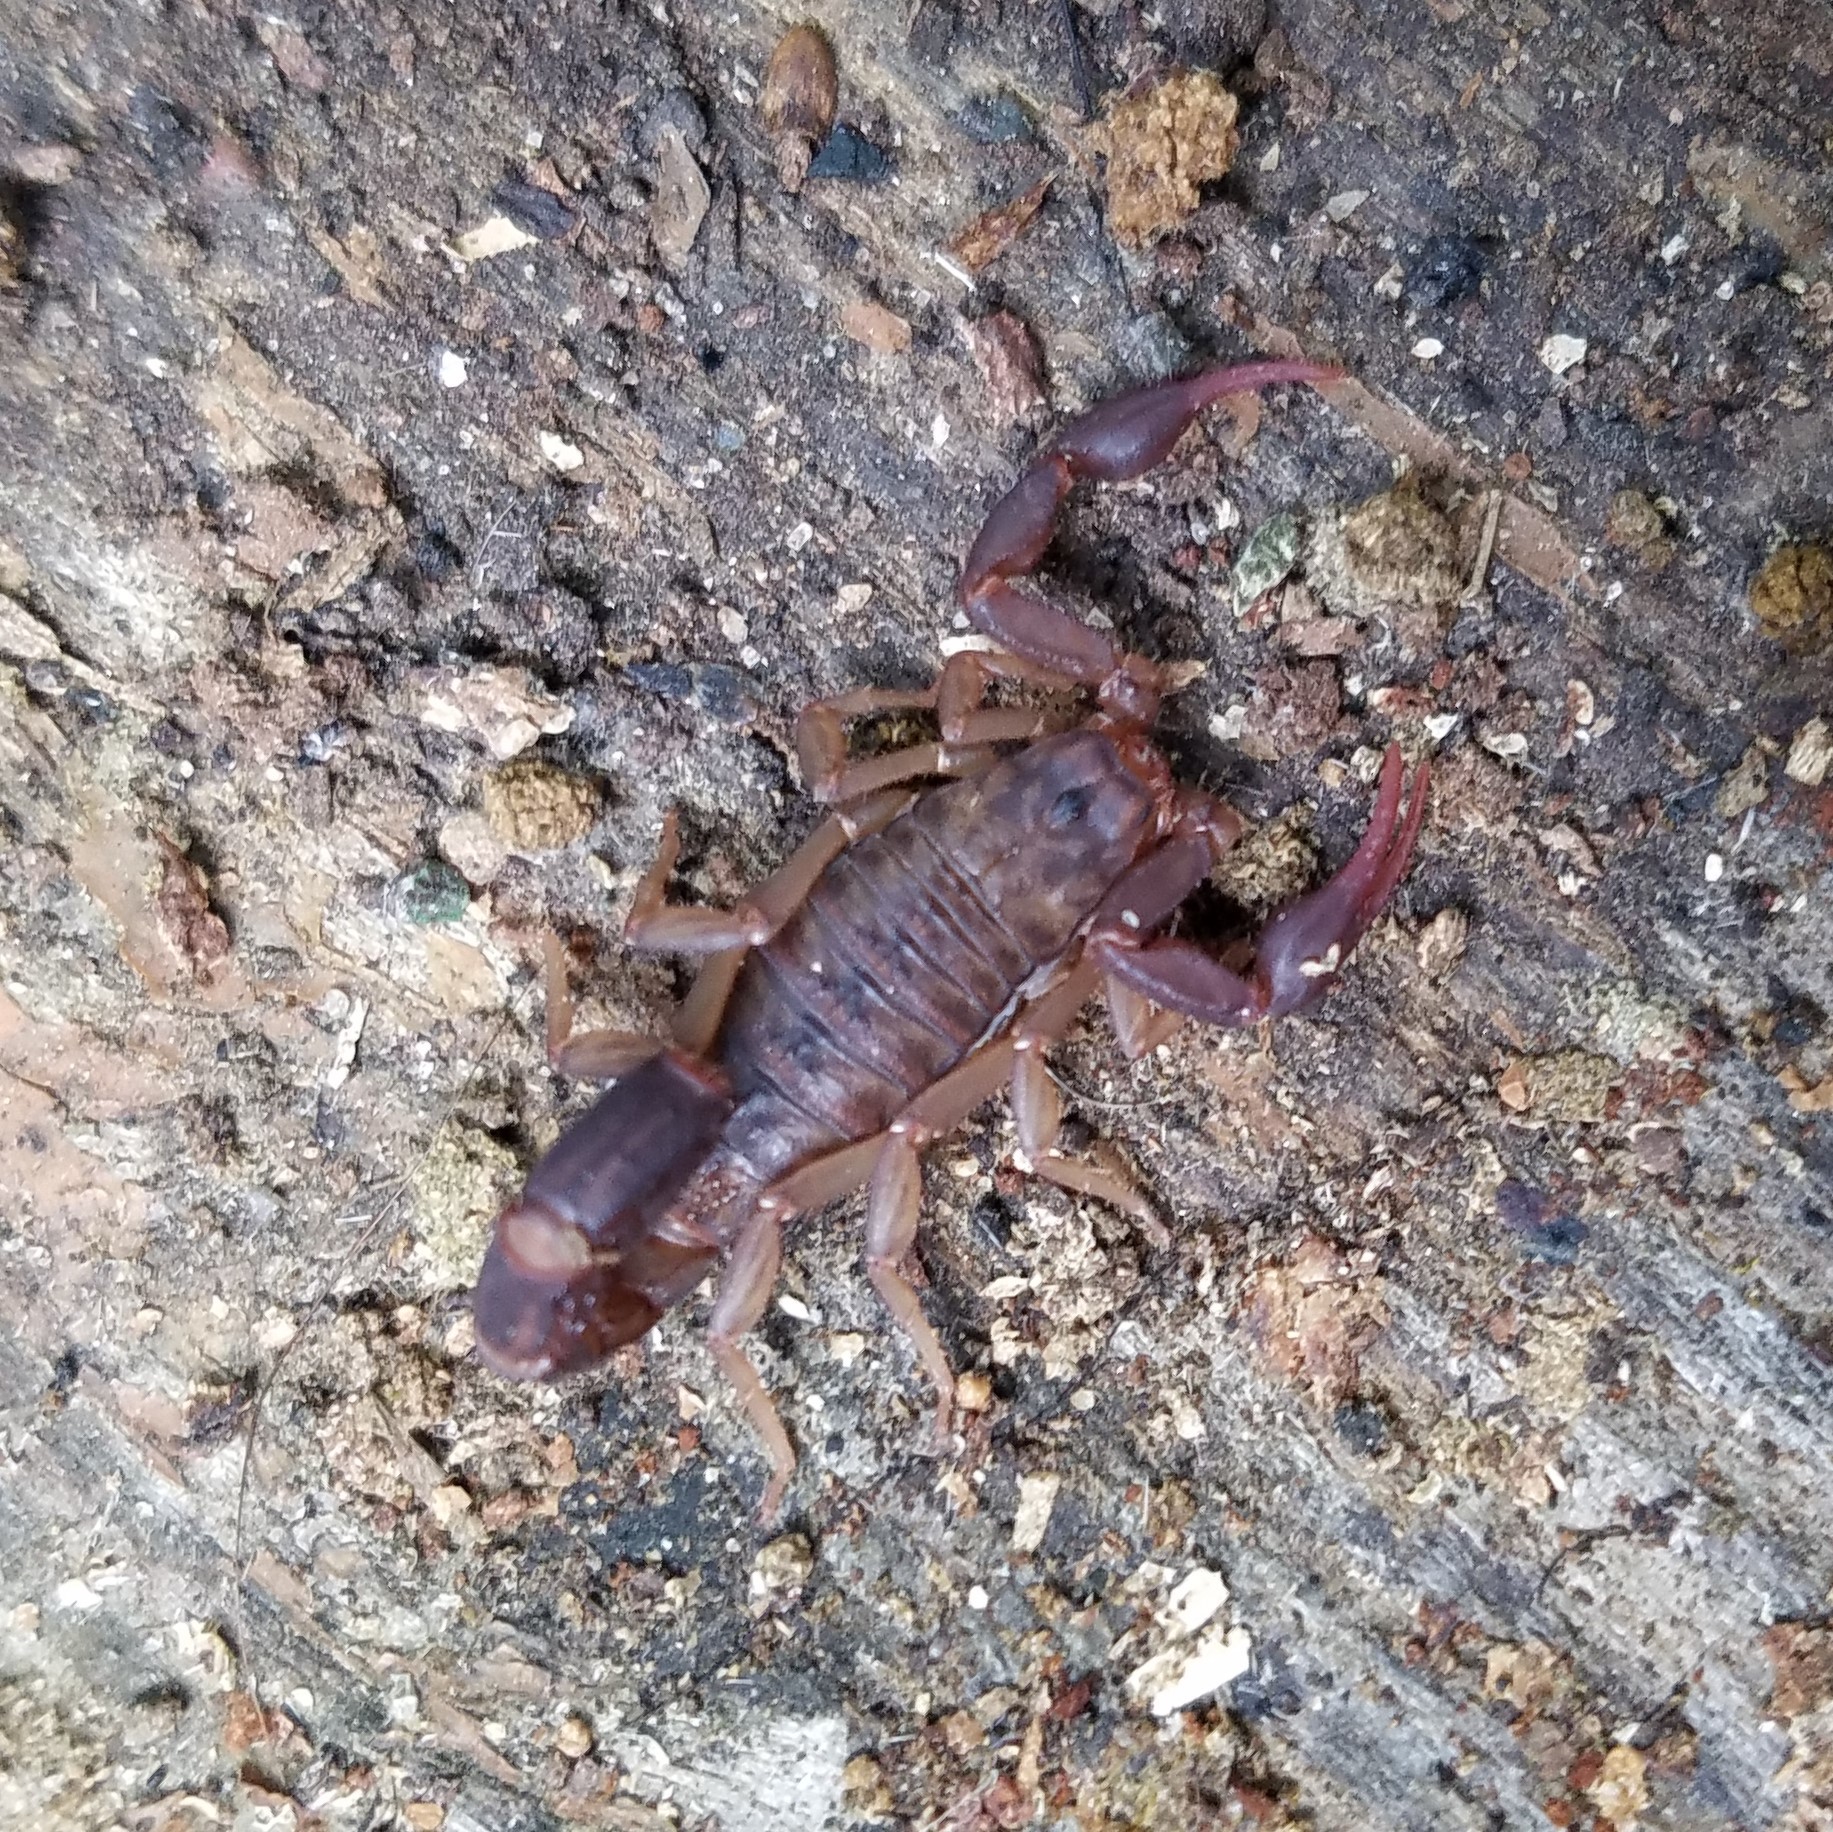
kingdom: Animalia
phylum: Arthropoda
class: Arachnida
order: Scorpiones
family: Vaejovidae
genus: Vaejovis
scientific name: Vaejovis carolinianus
